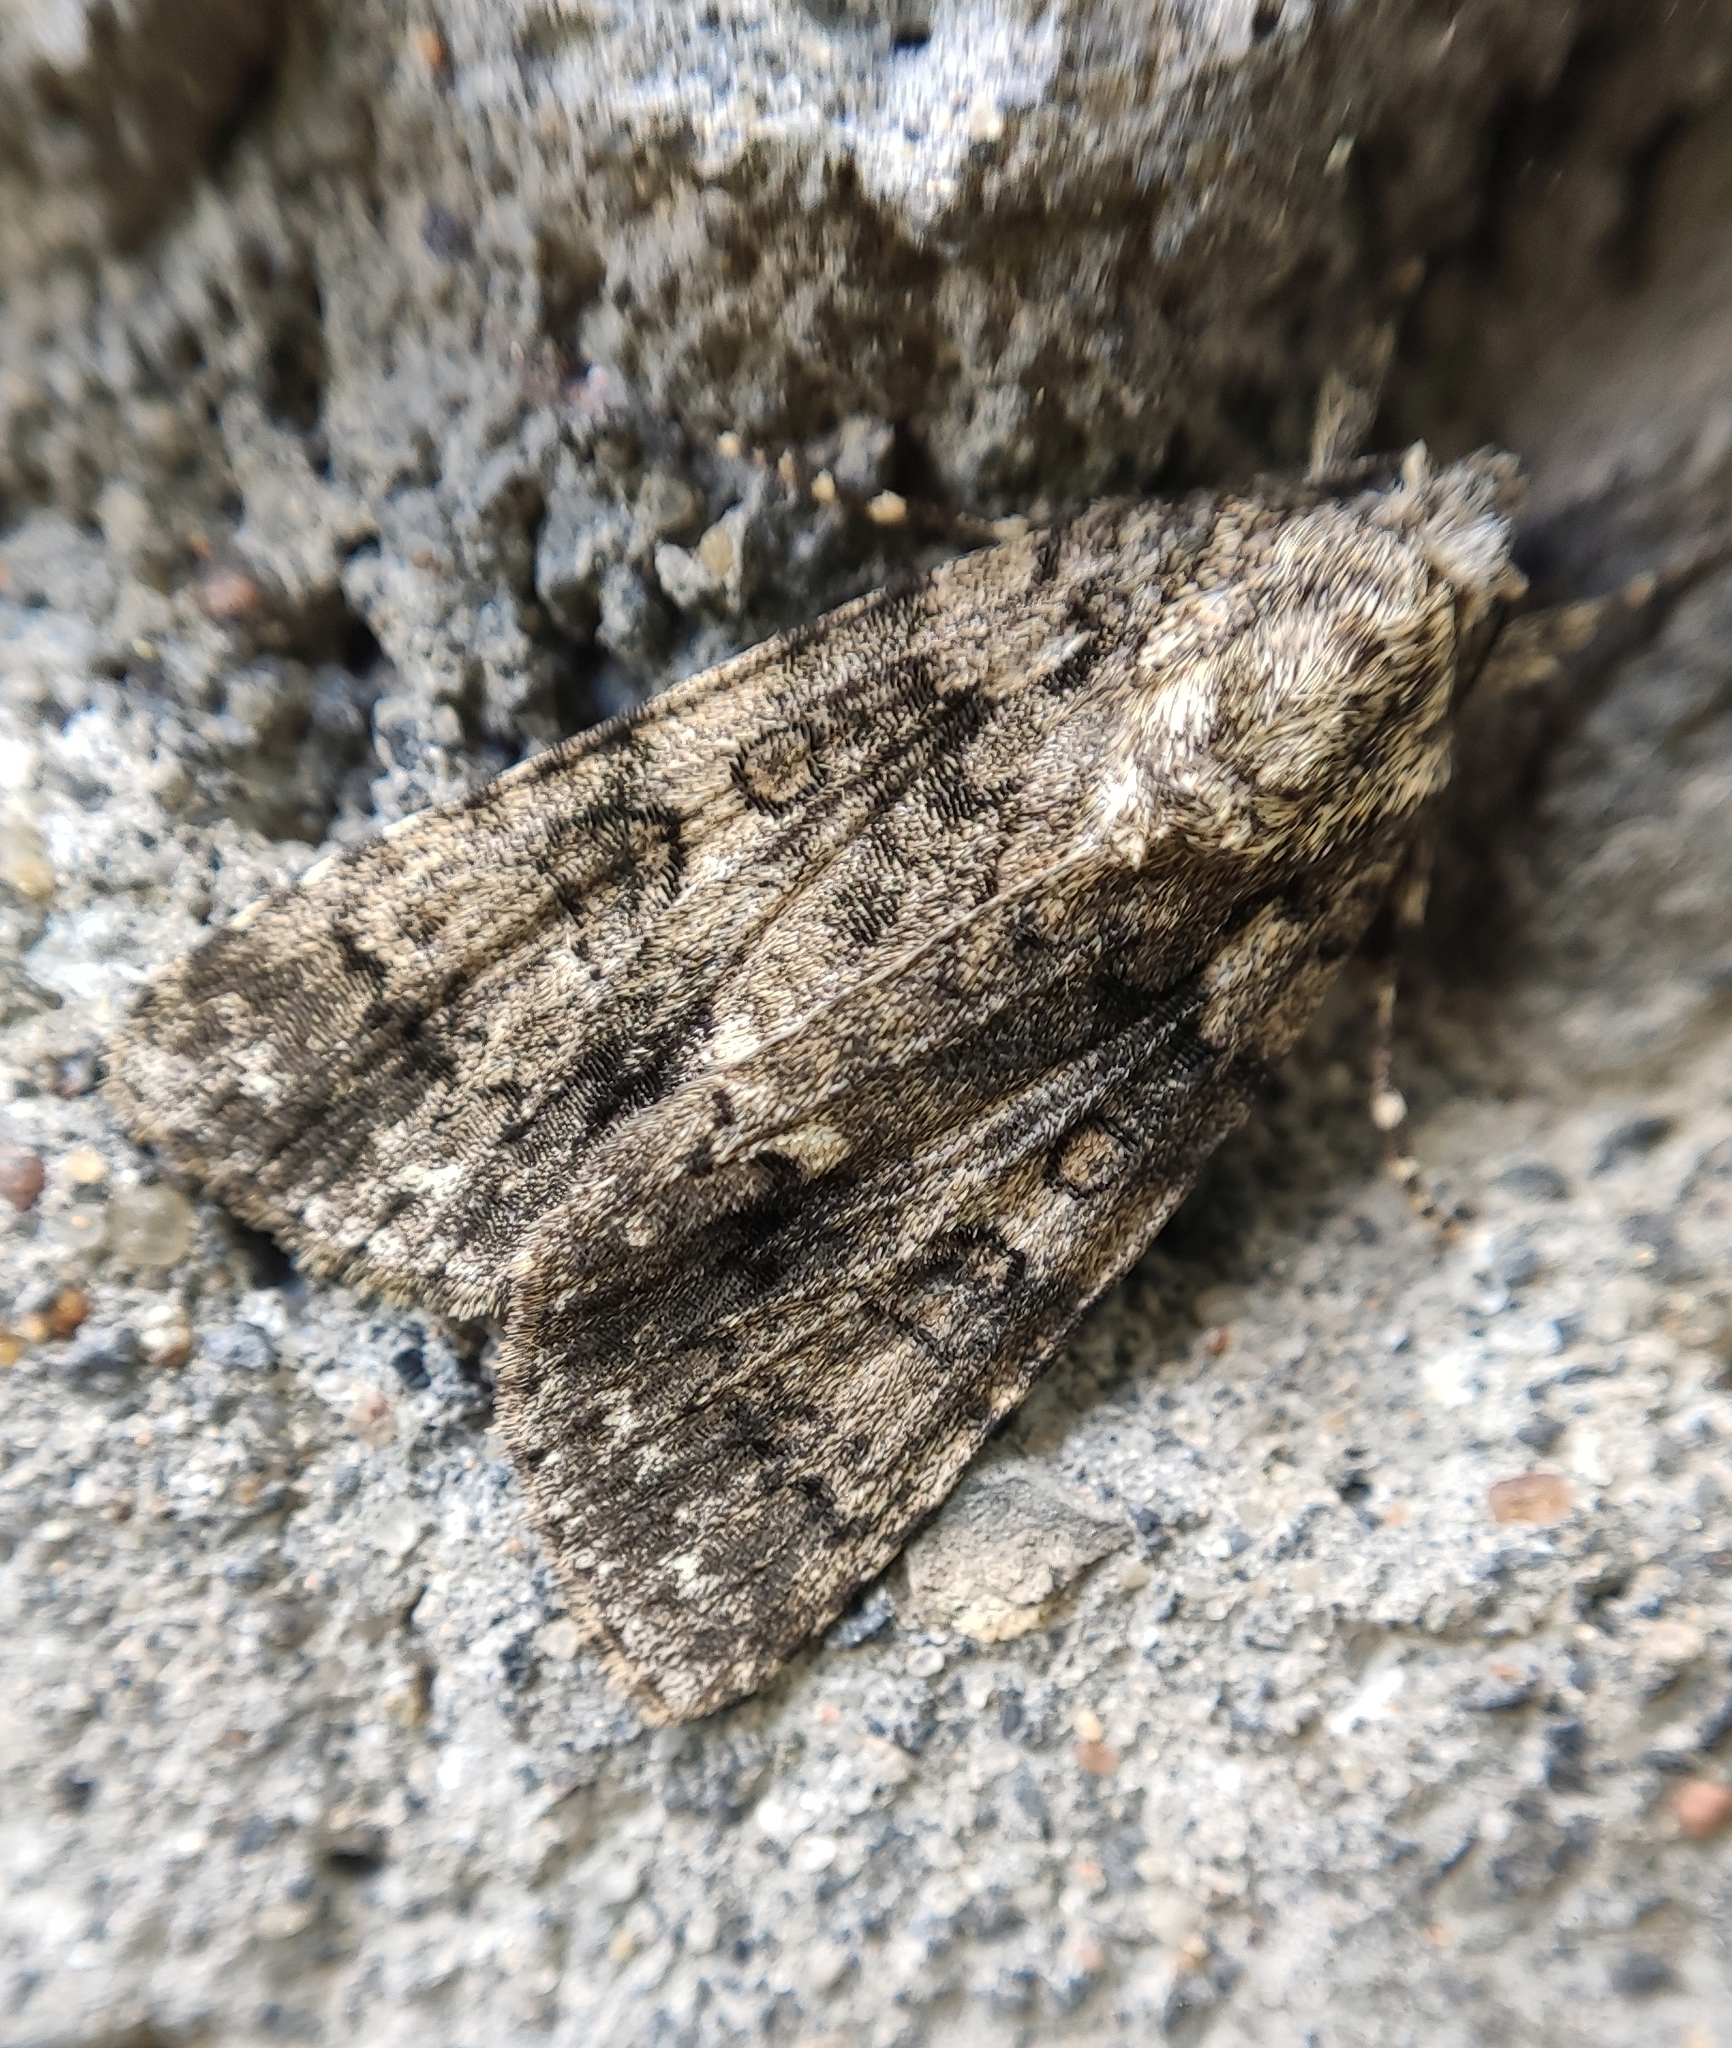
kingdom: Animalia
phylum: Arthropoda
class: Insecta
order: Lepidoptera
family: Noctuidae
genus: Acronicta
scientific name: Acronicta rumicis
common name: Knot grass
